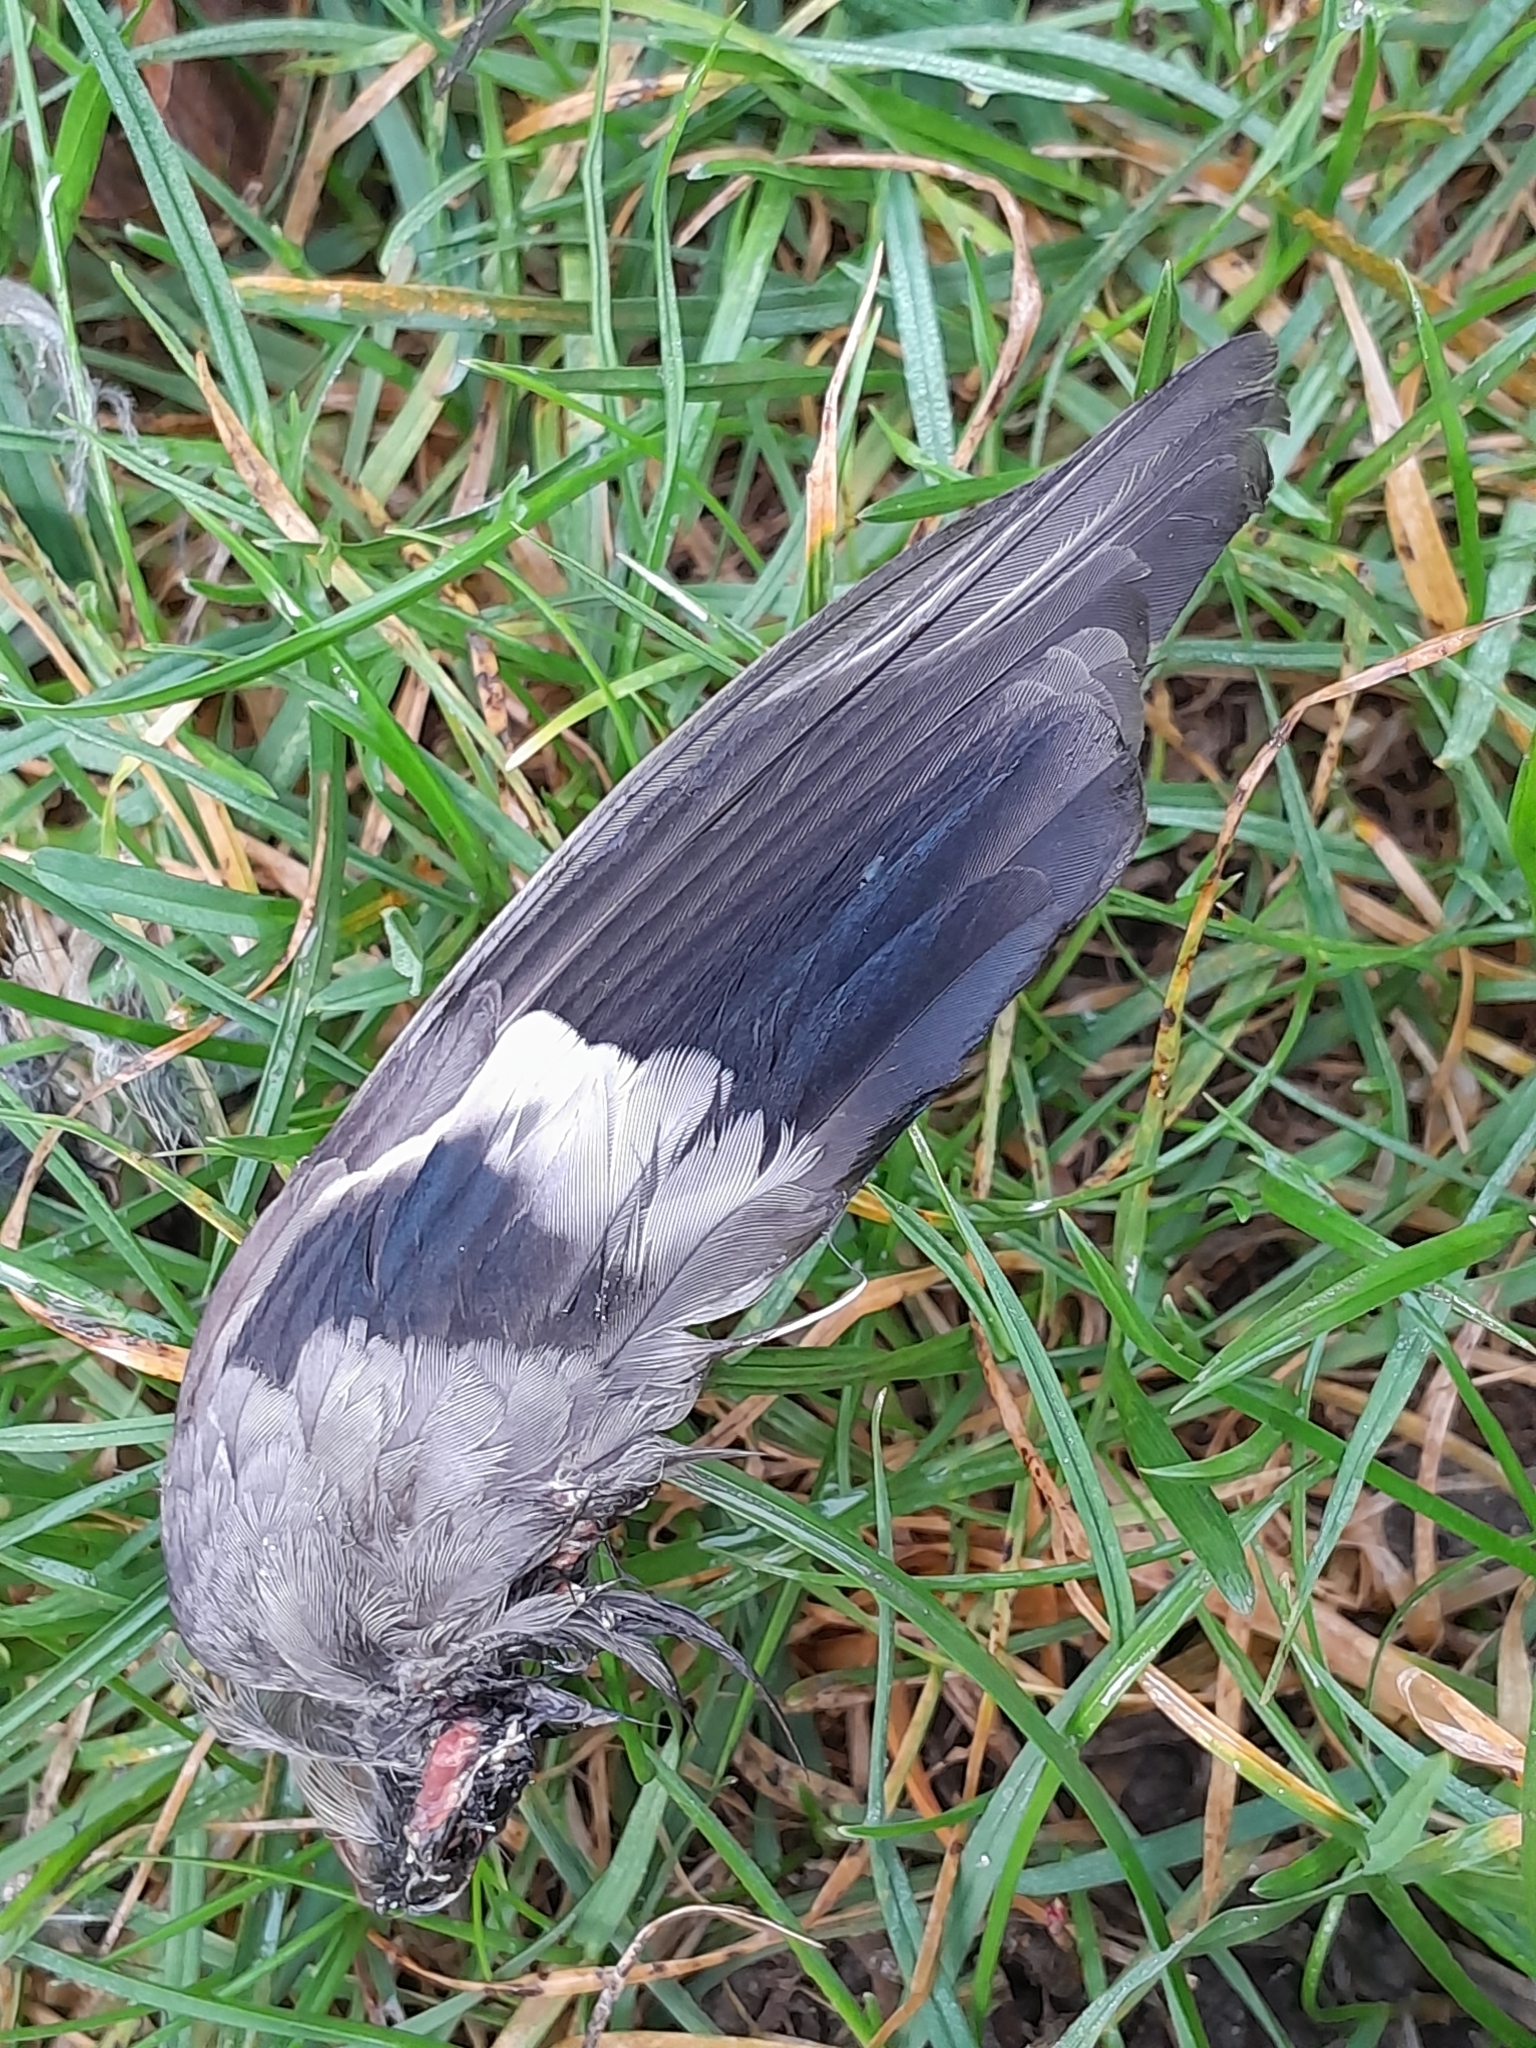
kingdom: Animalia
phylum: Chordata
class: Aves
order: Passeriformes
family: Fringillidae
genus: Pyrrhula
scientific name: Pyrrhula pyrrhula
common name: Eurasian bullfinch
